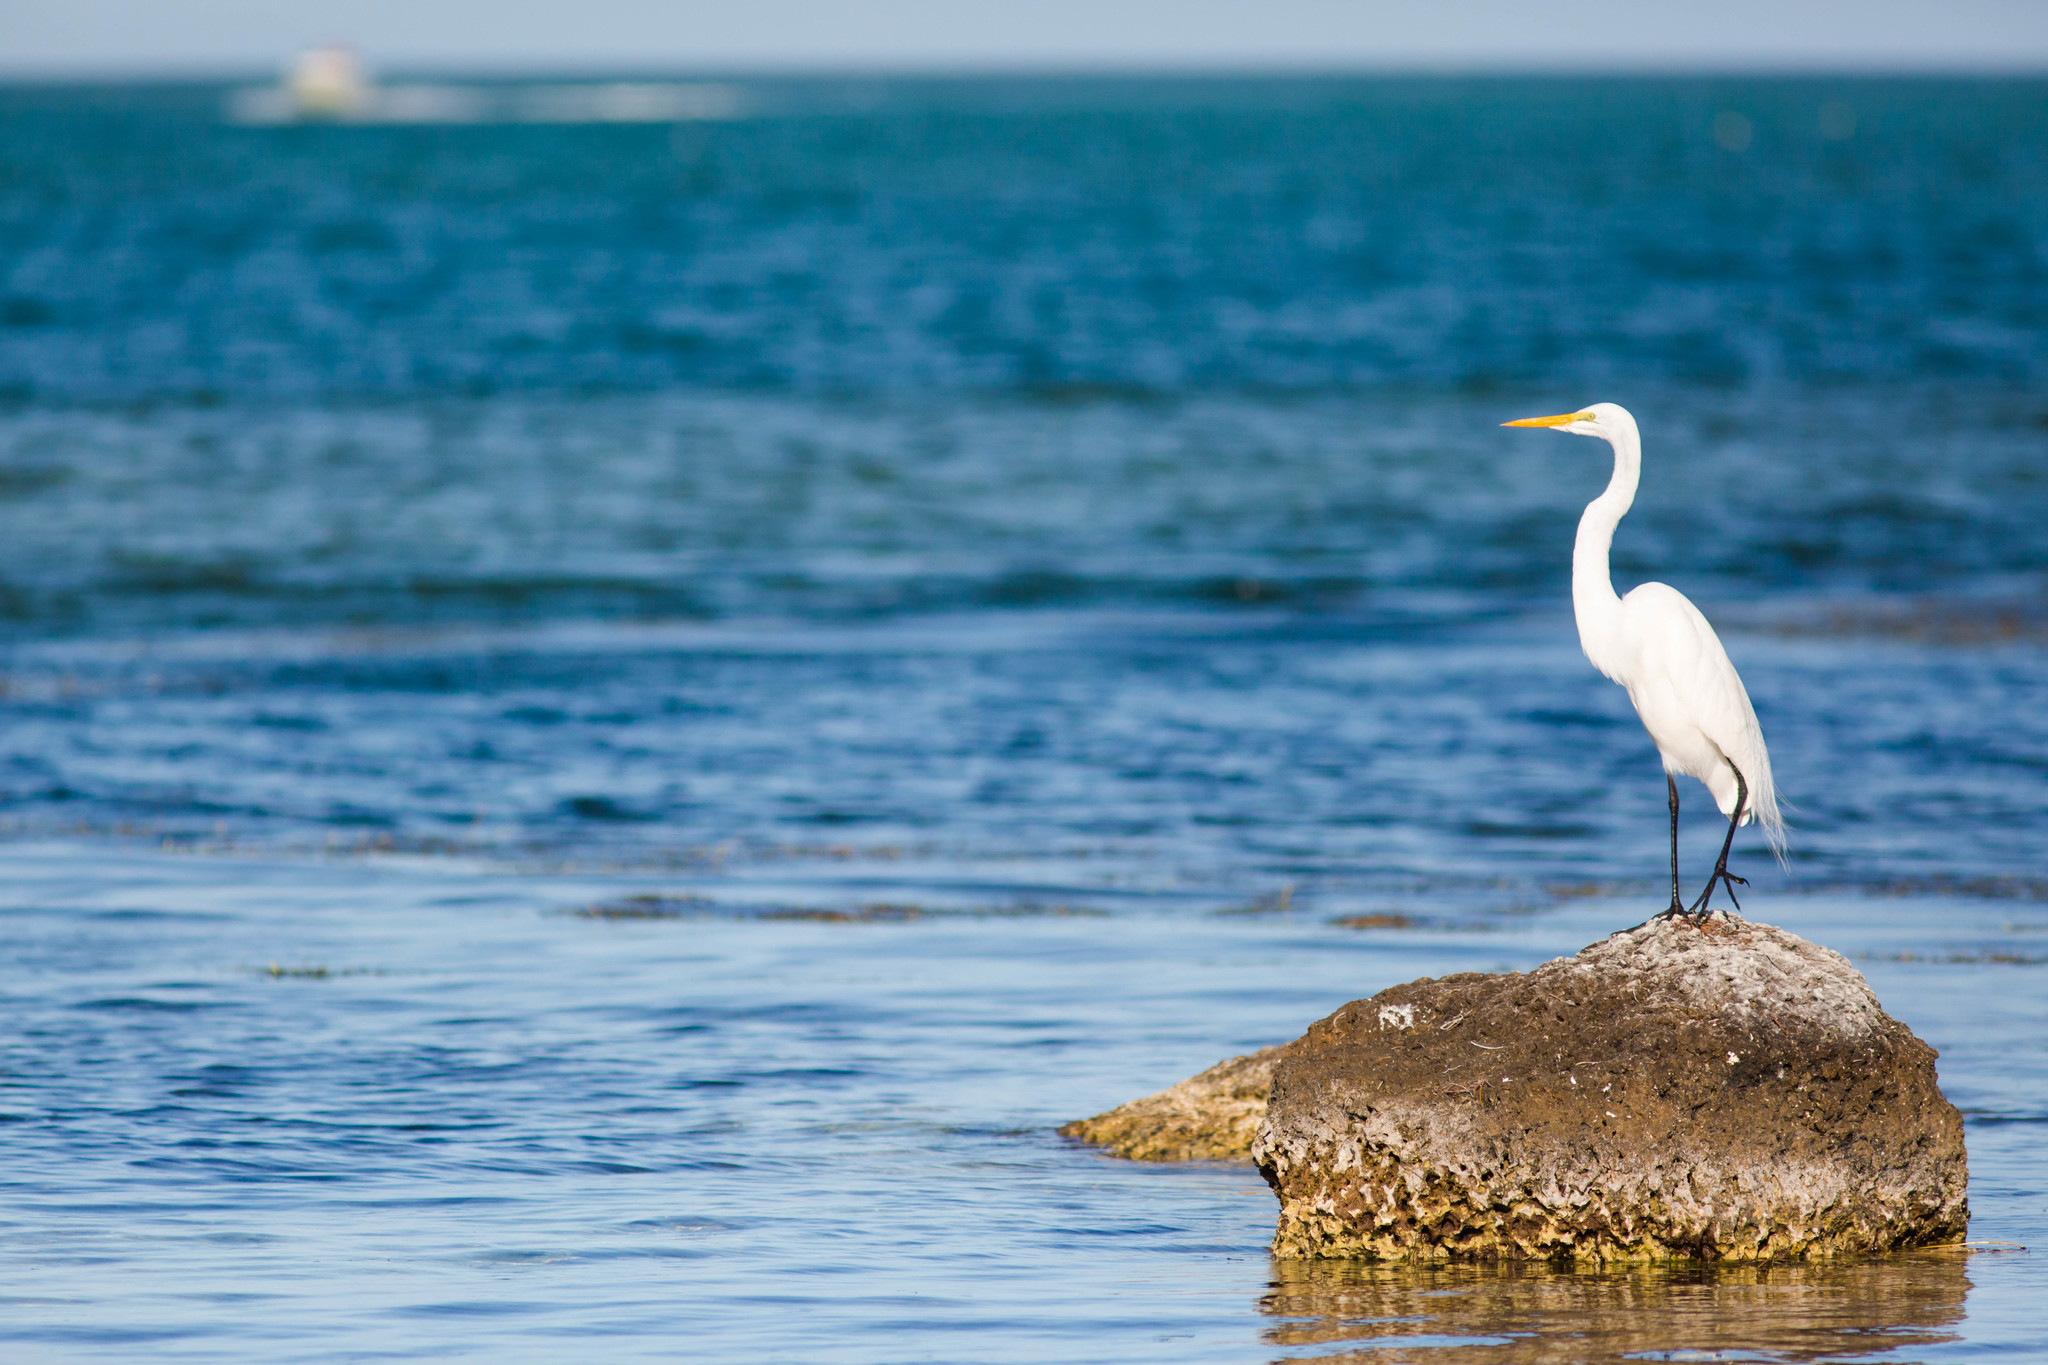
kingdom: Animalia
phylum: Chordata
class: Aves
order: Pelecaniformes
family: Ardeidae
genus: Ardea
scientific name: Ardea alba
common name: Great egret
